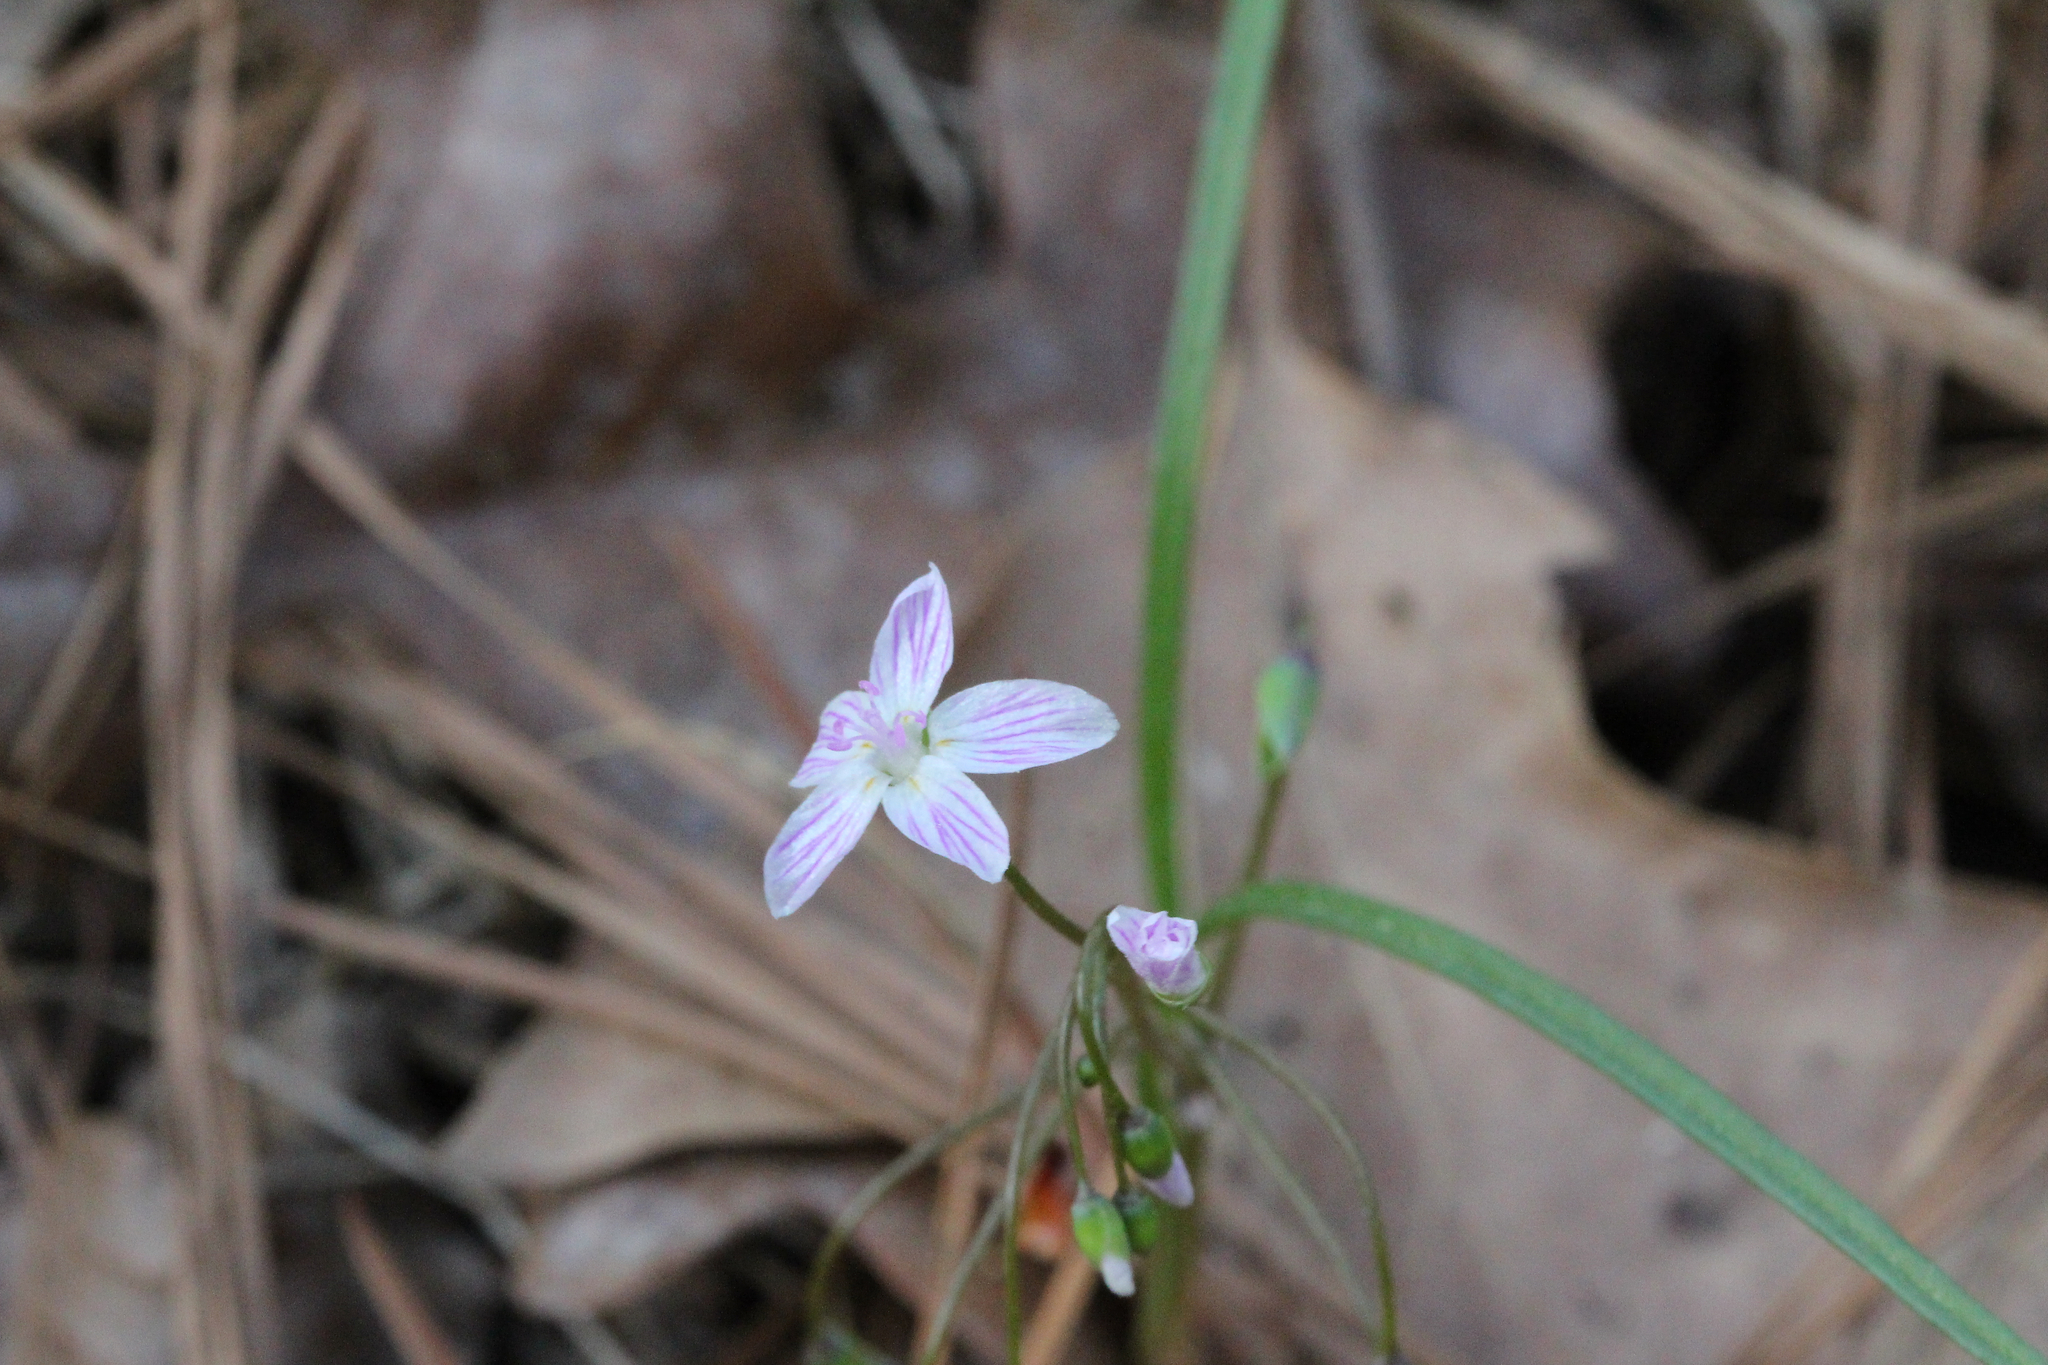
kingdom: Plantae
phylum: Tracheophyta
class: Magnoliopsida
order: Caryophyllales
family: Montiaceae
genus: Claytonia
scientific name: Claytonia virginica
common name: Virginia springbeauty
